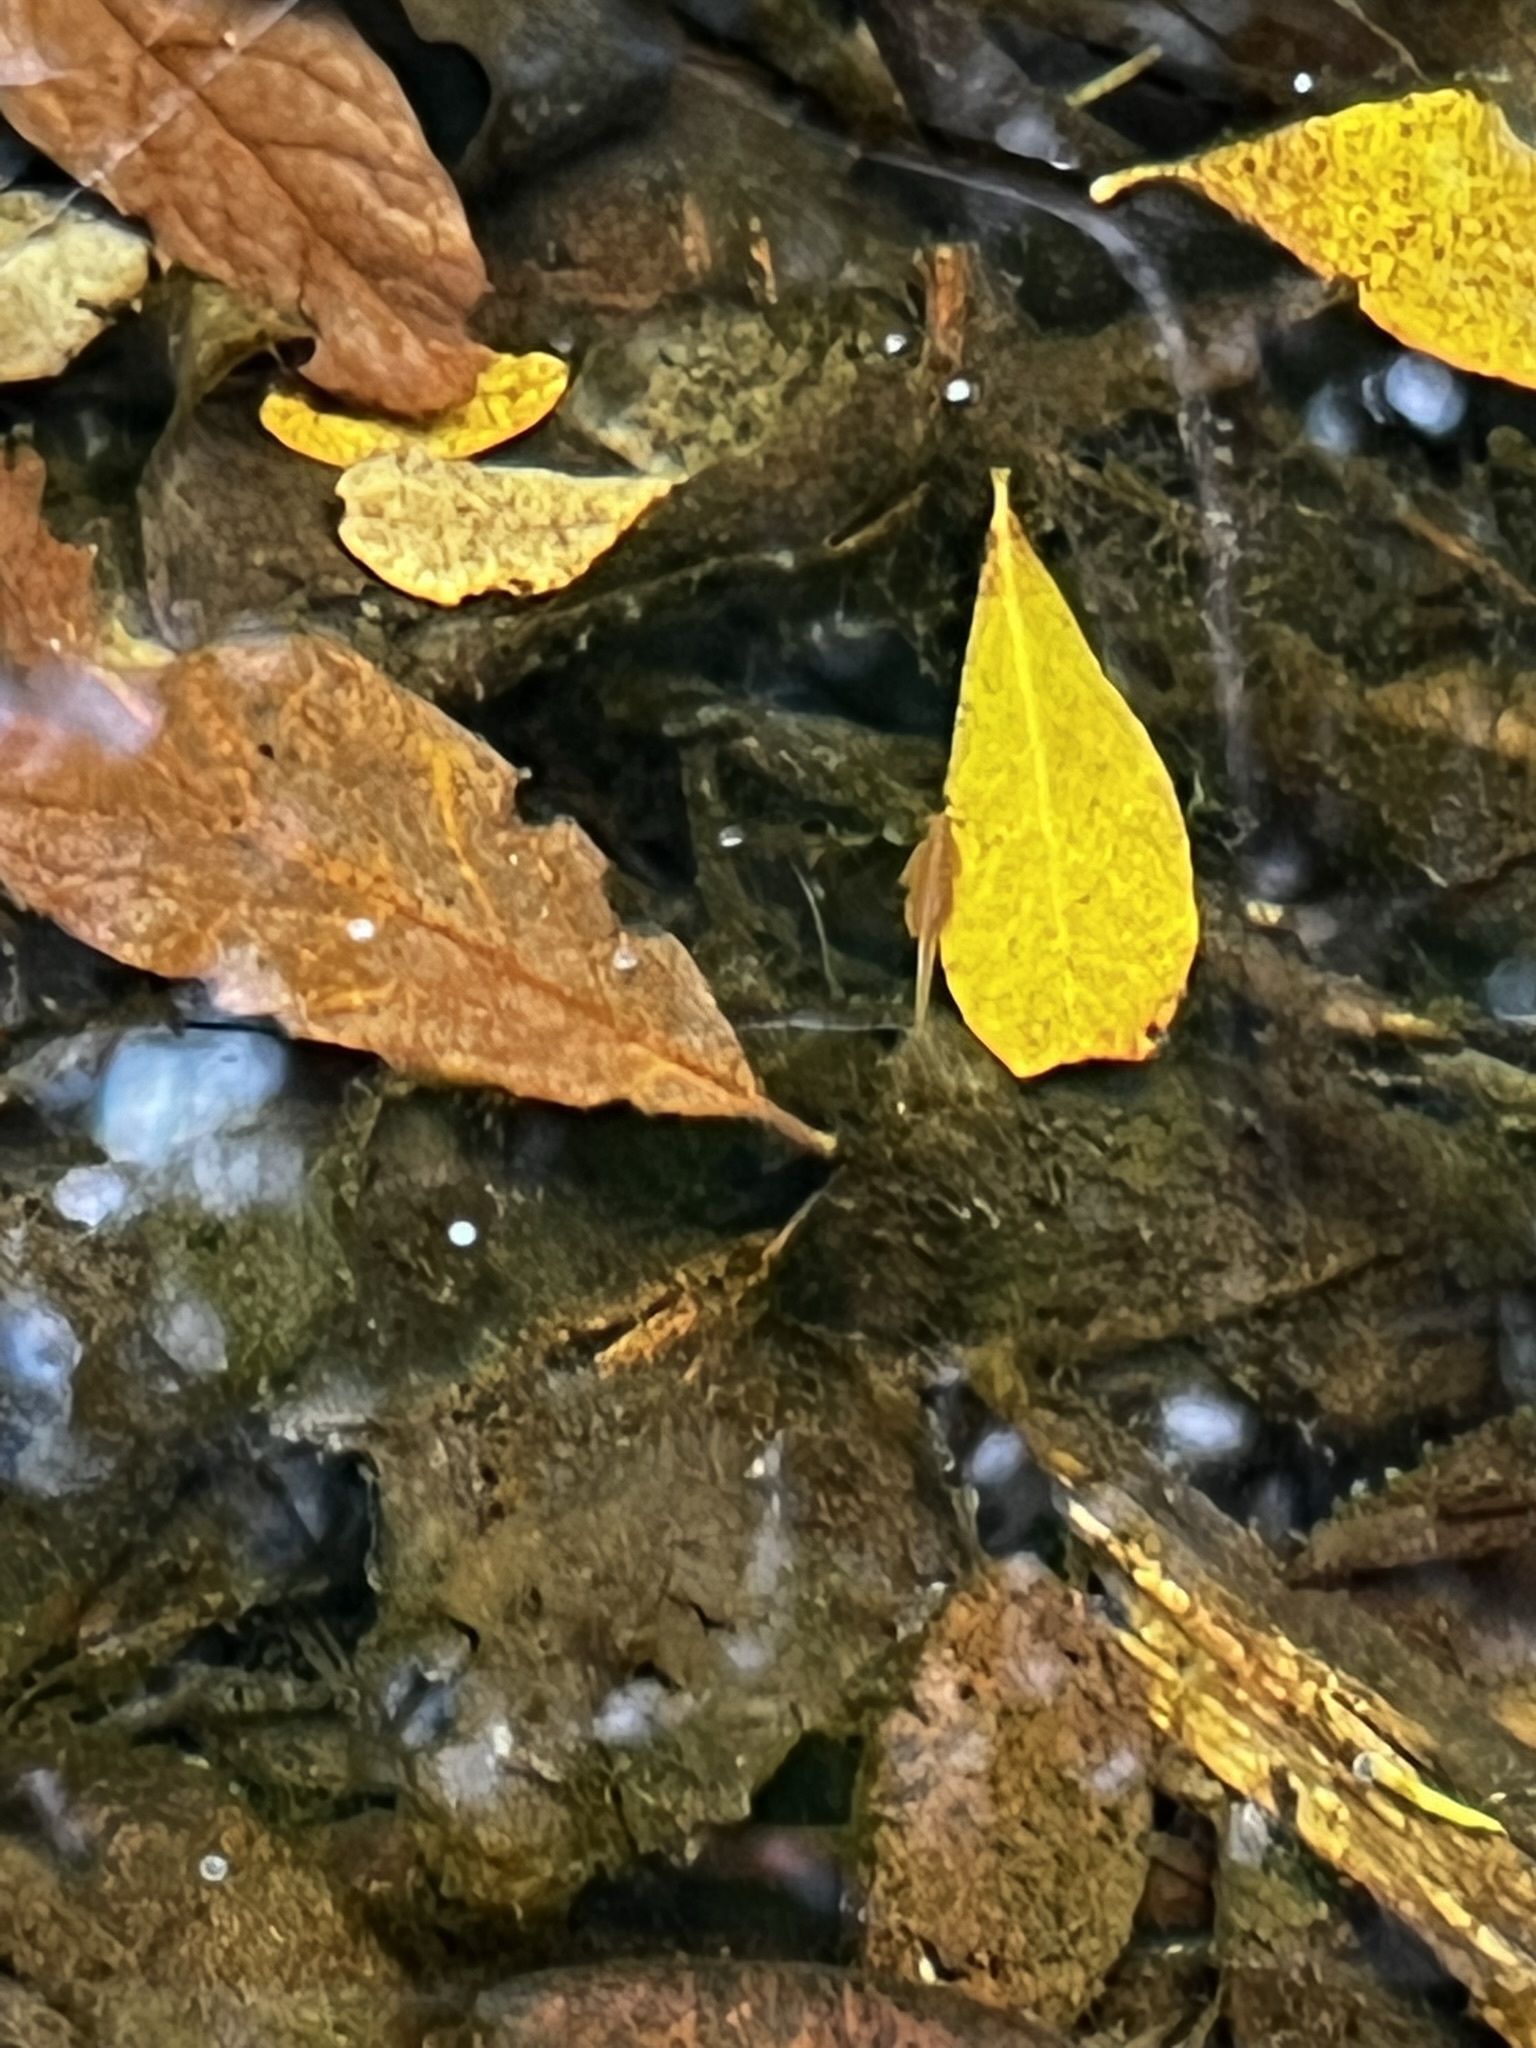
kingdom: Animalia
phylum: Arthropoda
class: Branchiopoda
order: Anostraca
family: Chirocephalidae
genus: Eubranchipus
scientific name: Eubranchipus oregonus
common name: Oregon fairy shrimp
